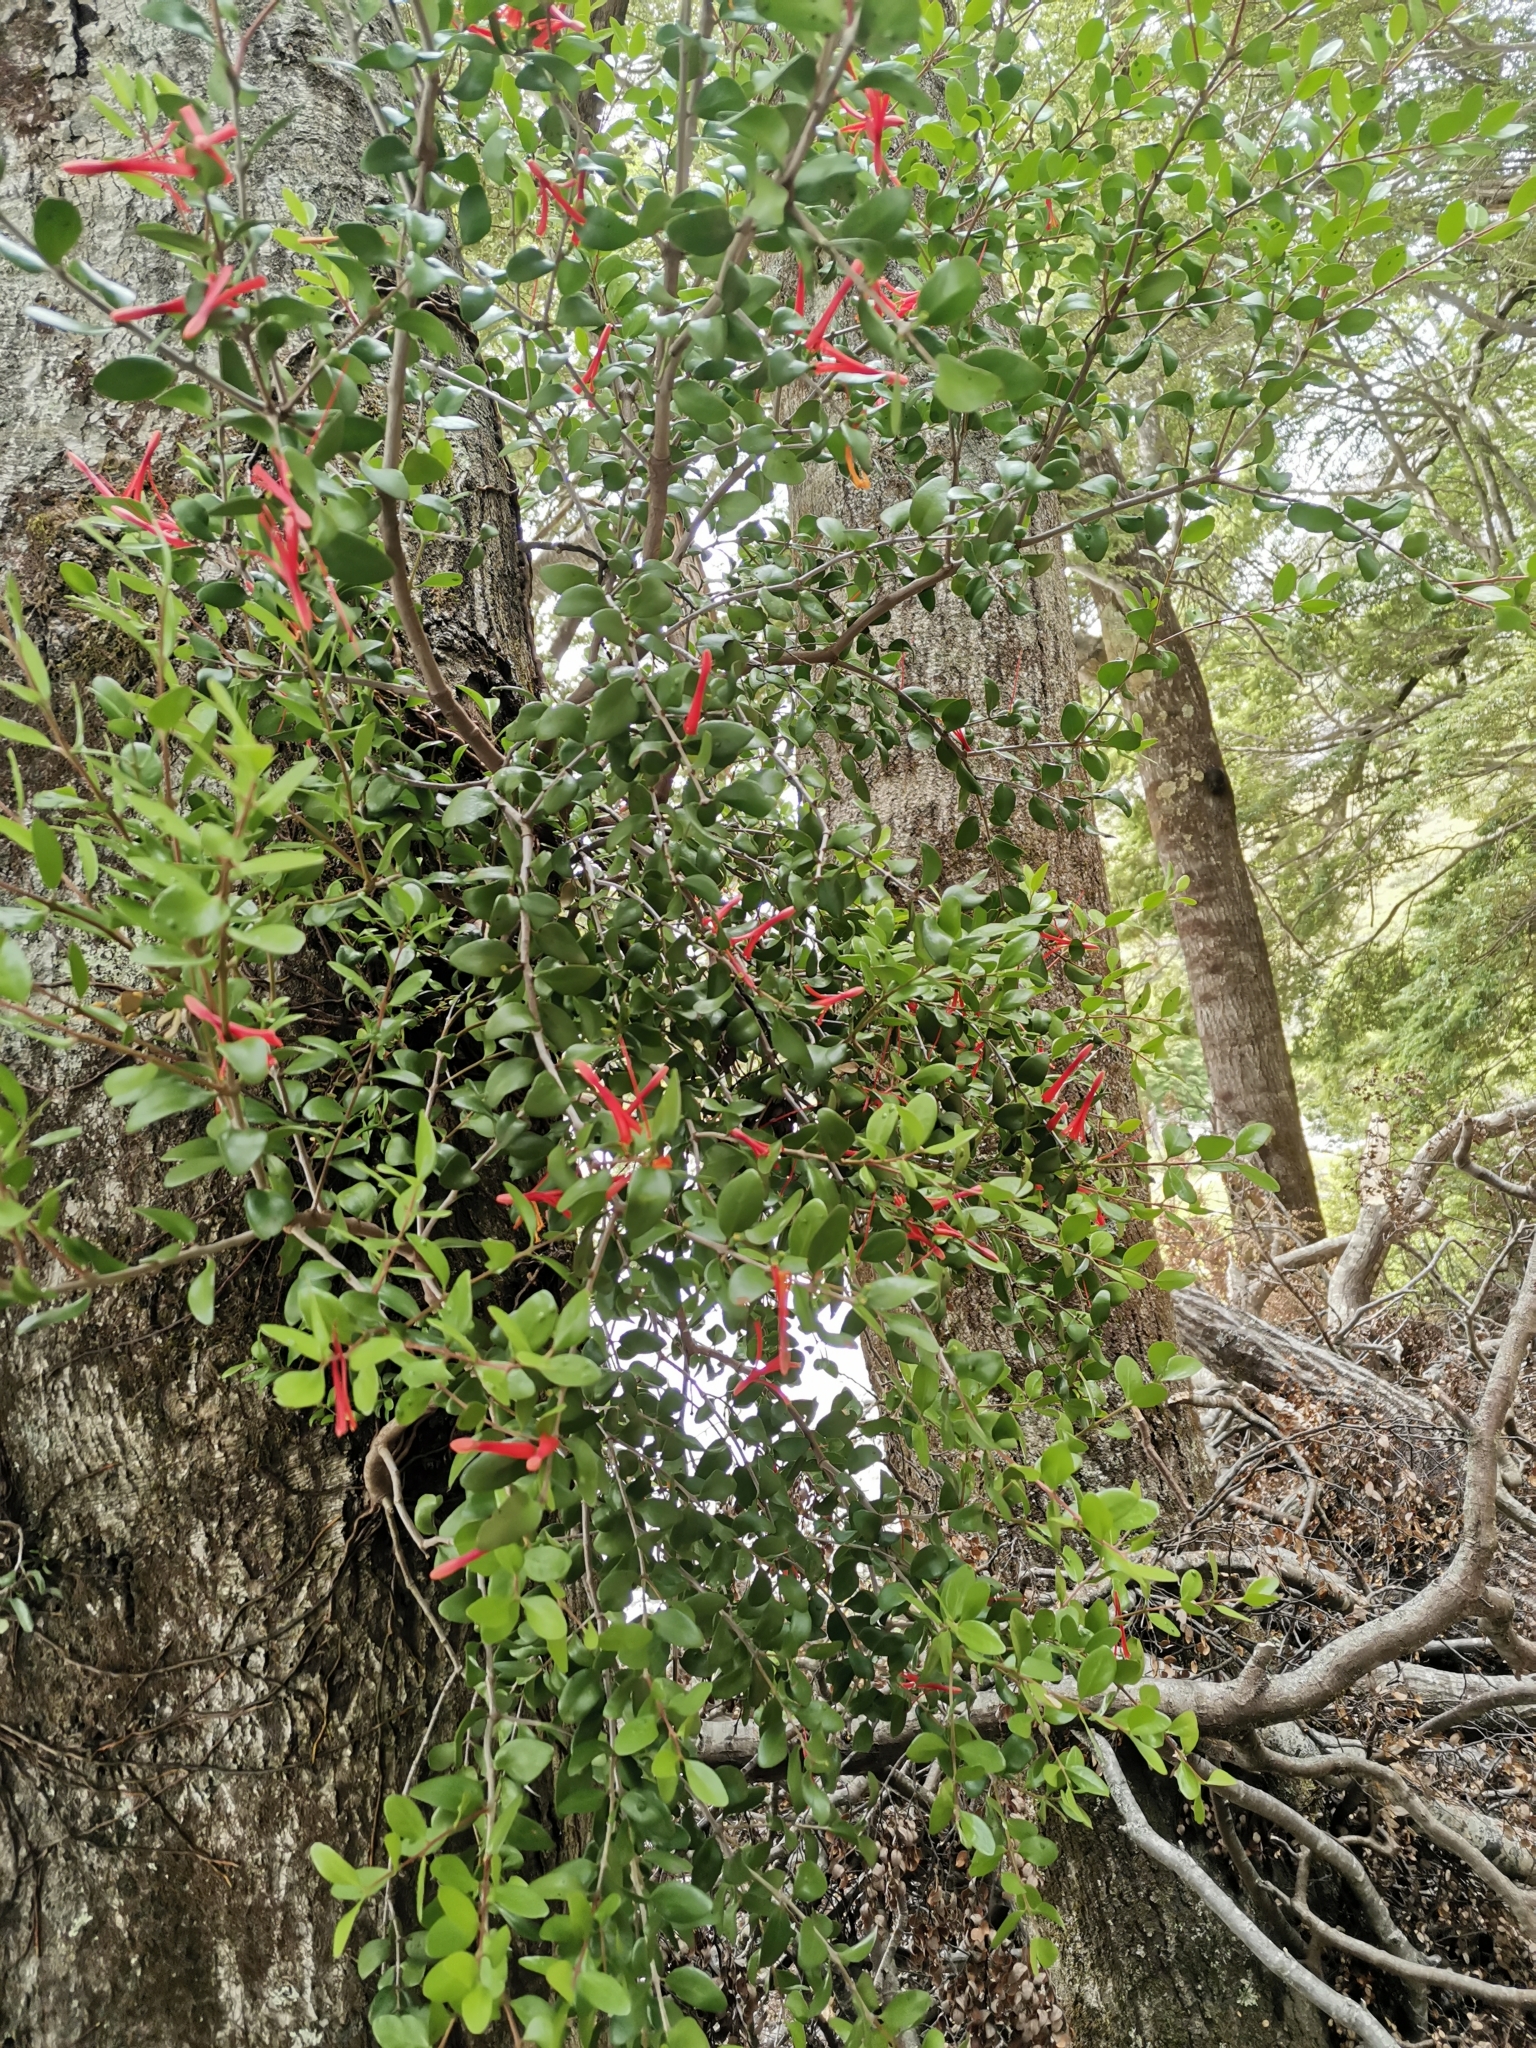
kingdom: Plantae
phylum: Tracheophyta
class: Magnoliopsida
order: Santalales
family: Loranthaceae
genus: Peraxilla
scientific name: Peraxilla tetrapetala
